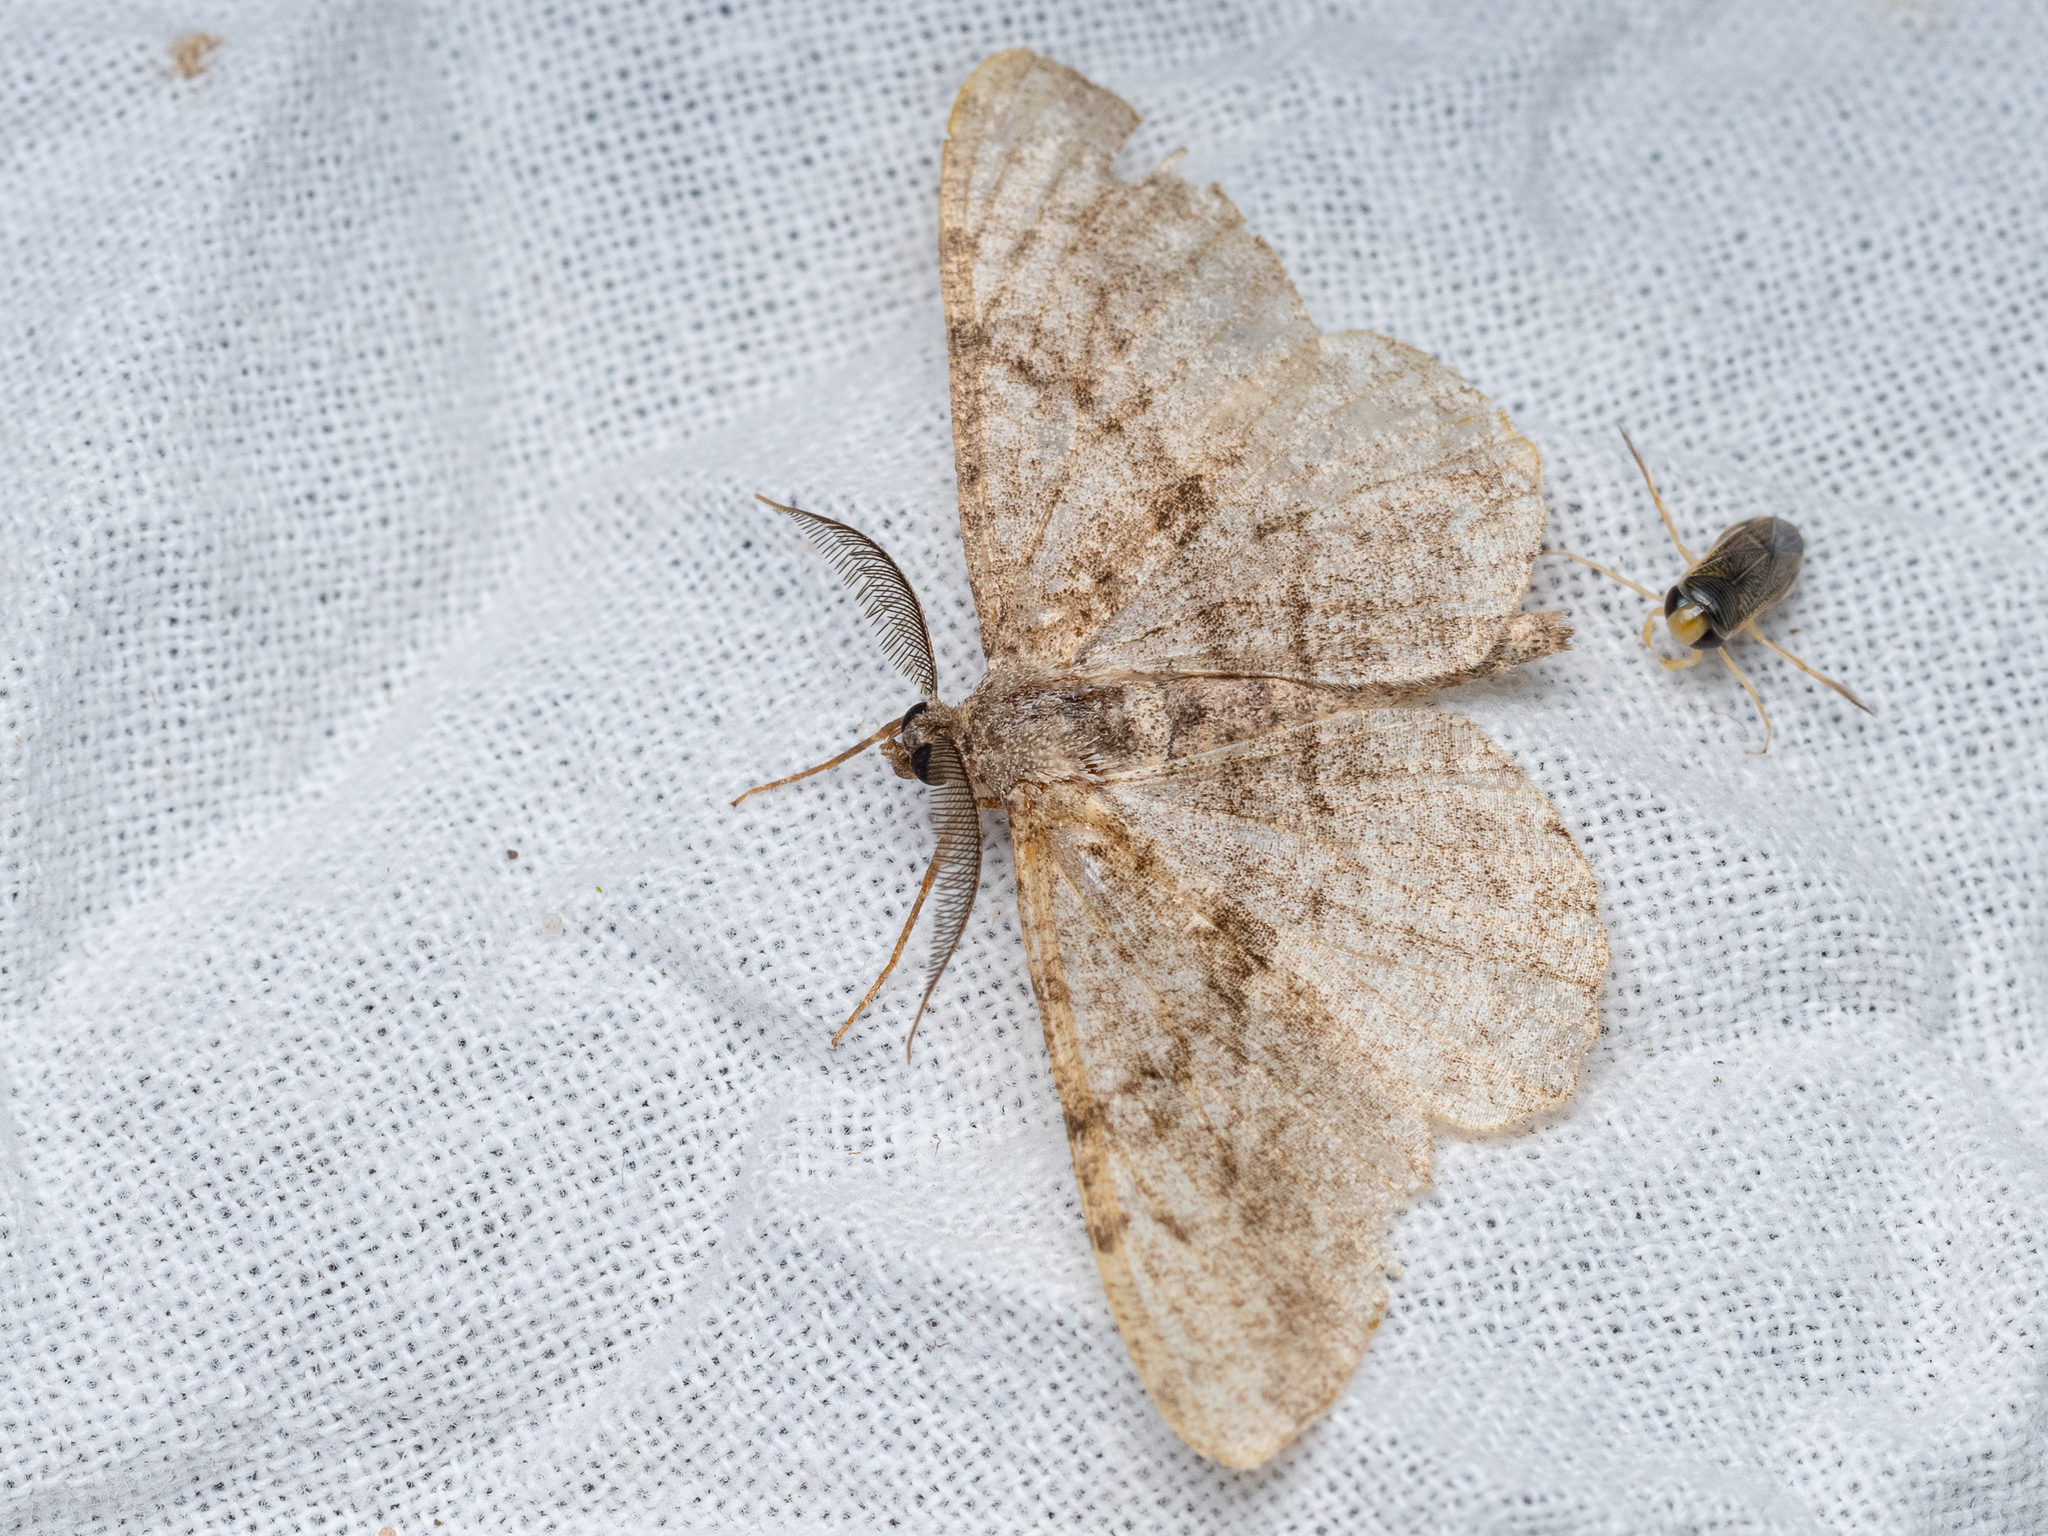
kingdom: Animalia
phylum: Arthropoda
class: Insecta
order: Lepidoptera
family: Geometridae
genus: Peribatodes
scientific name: Peribatodes rhomboidaria
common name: Willow beauty
